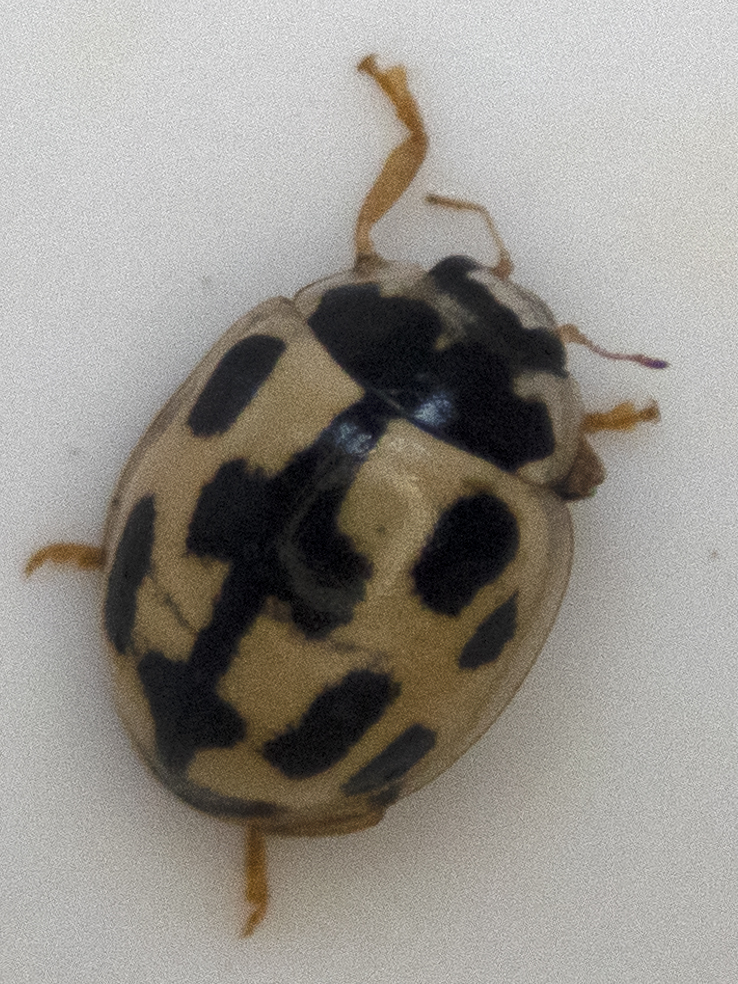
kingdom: Animalia
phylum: Arthropoda
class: Insecta
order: Coleoptera
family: Coccinellidae
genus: Propylaea
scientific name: Propylaea quatuordecimpunctata
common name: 14-spotted ladybird beetle
